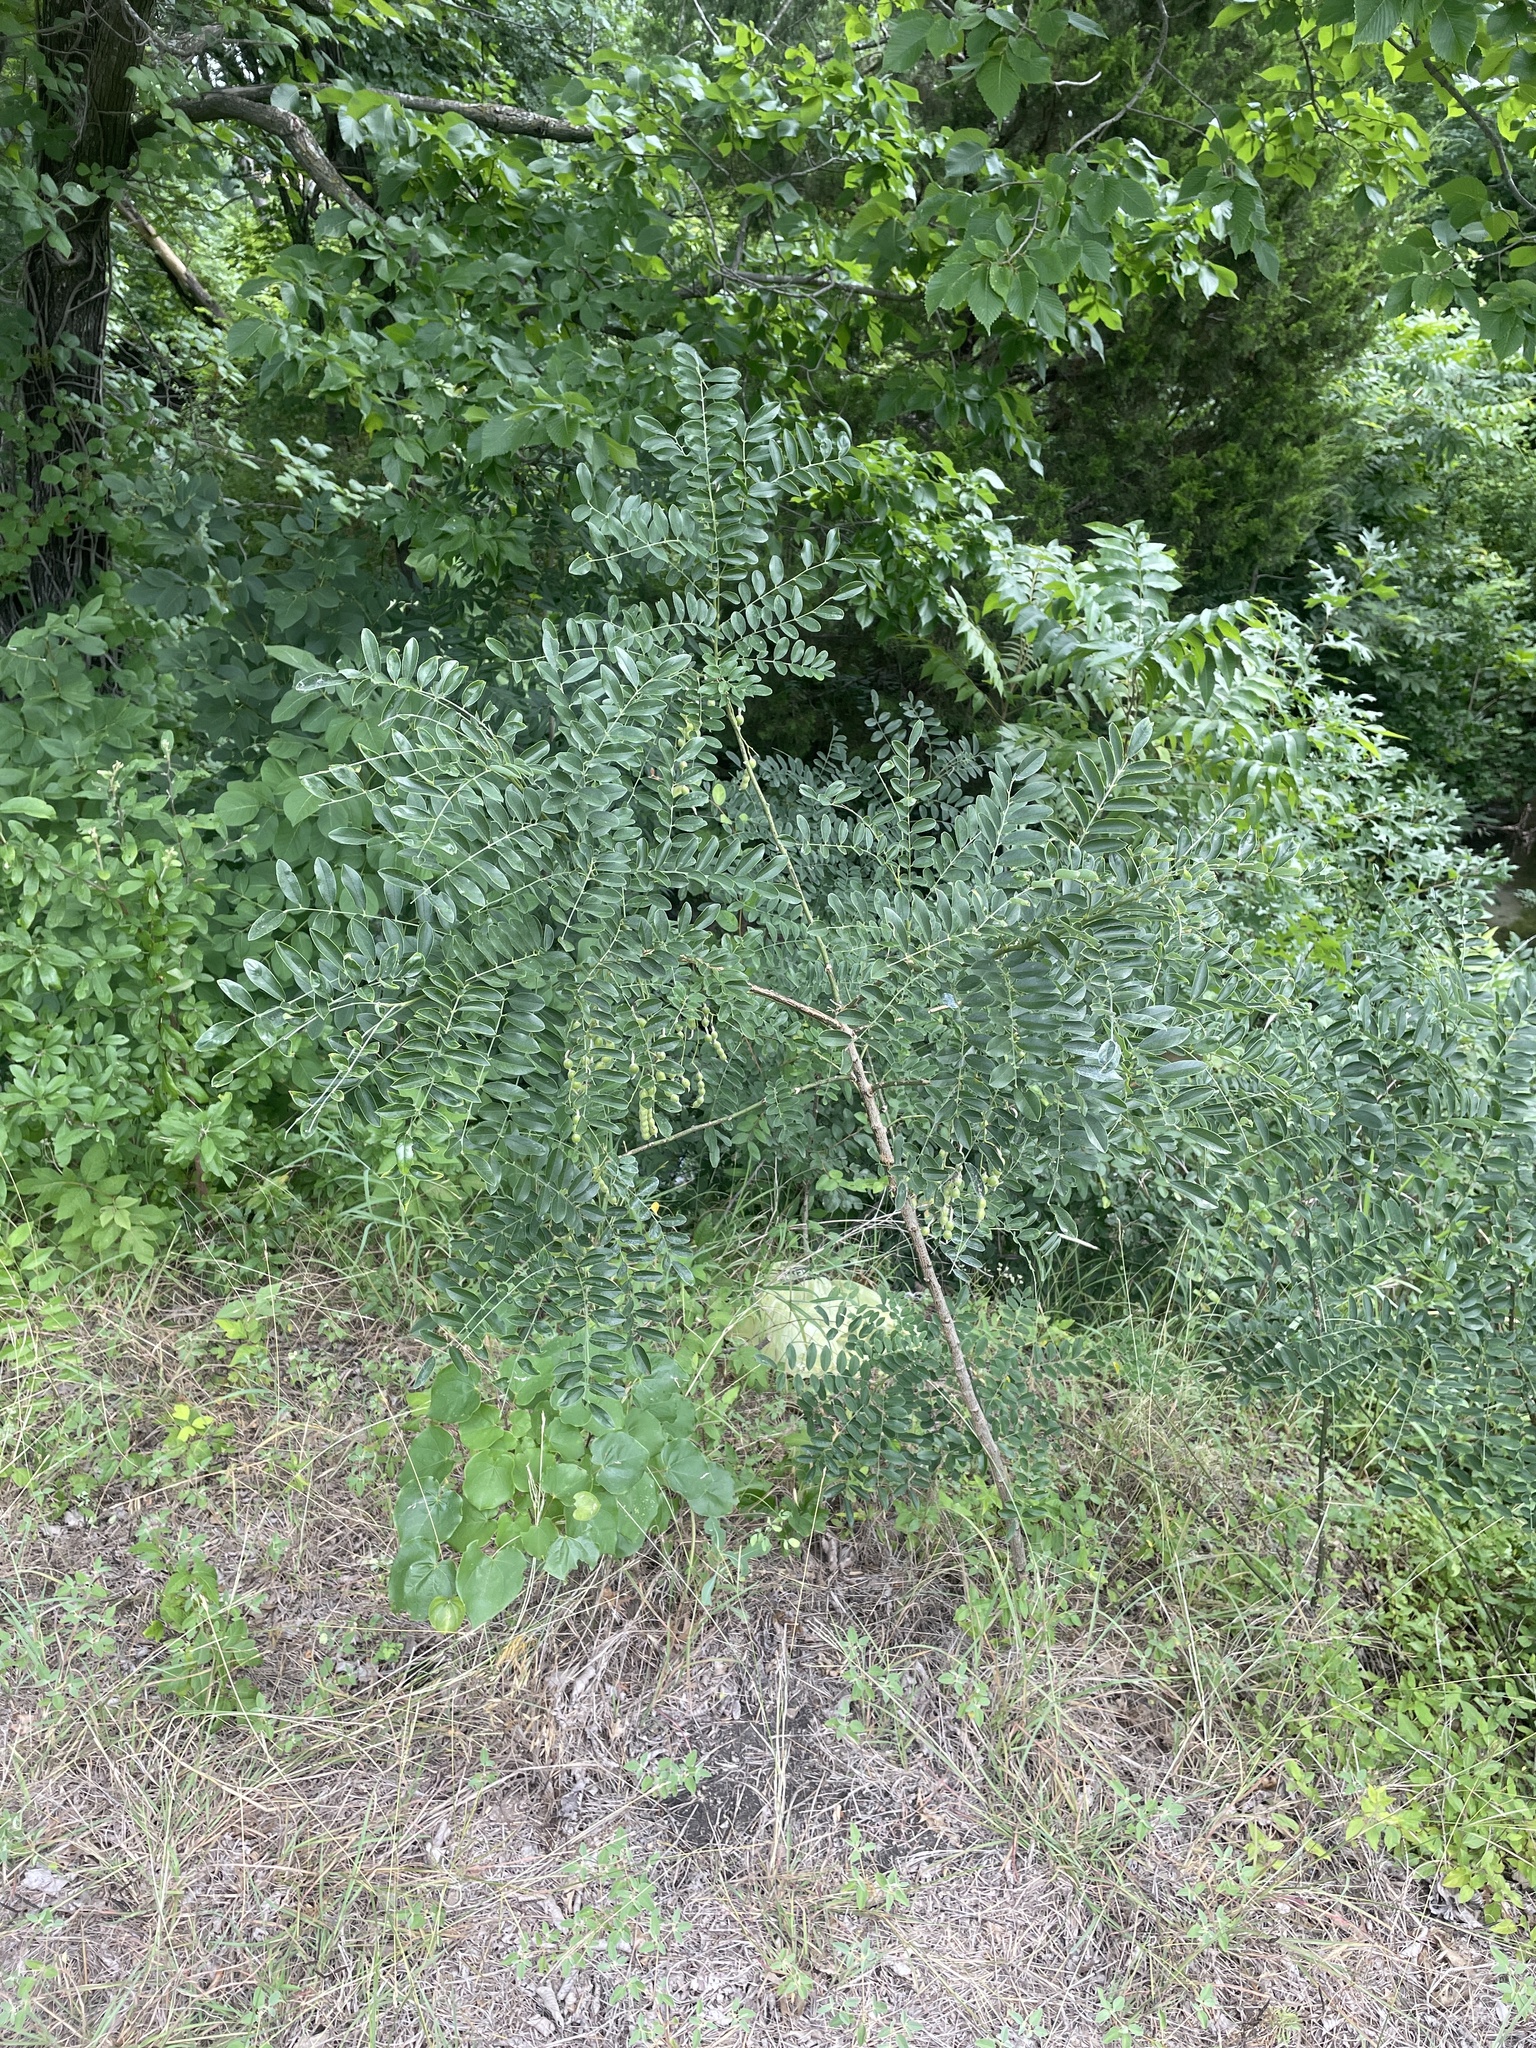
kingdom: Plantae
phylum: Tracheophyta
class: Magnoliopsida
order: Fabales
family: Fabaceae
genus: Styphnolobium
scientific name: Styphnolobium affine
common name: Texas sophora
